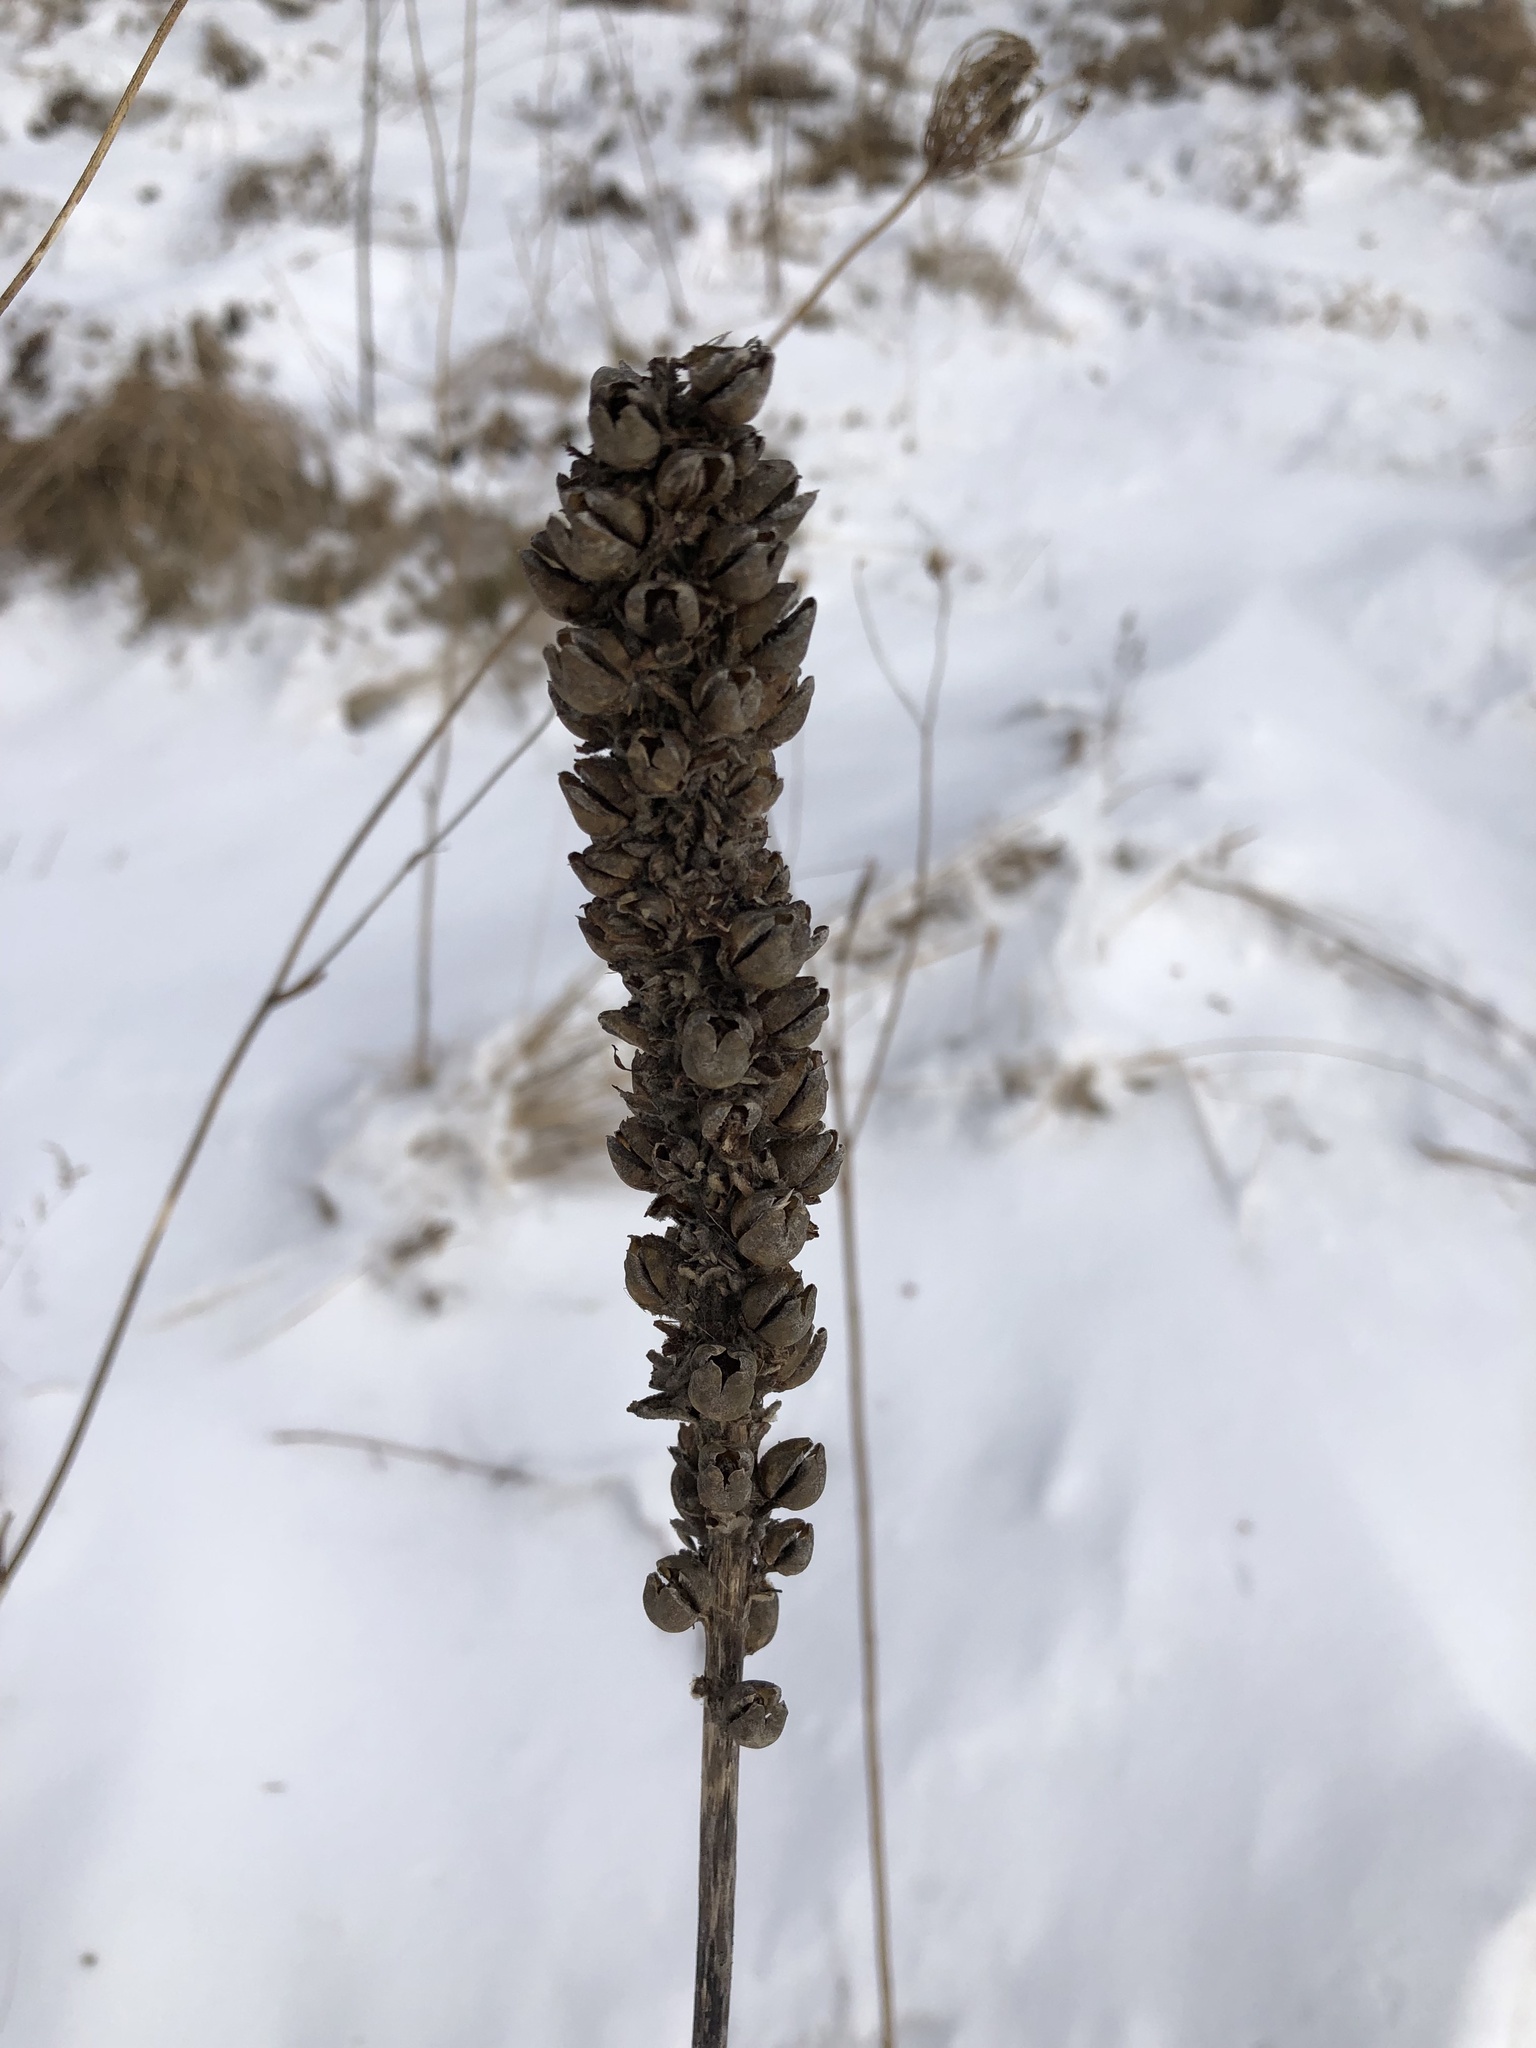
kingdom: Plantae
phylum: Tracheophyta
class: Magnoliopsida
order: Lamiales
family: Scrophulariaceae
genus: Verbascum
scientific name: Verbascum thapsus
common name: Common mullein
